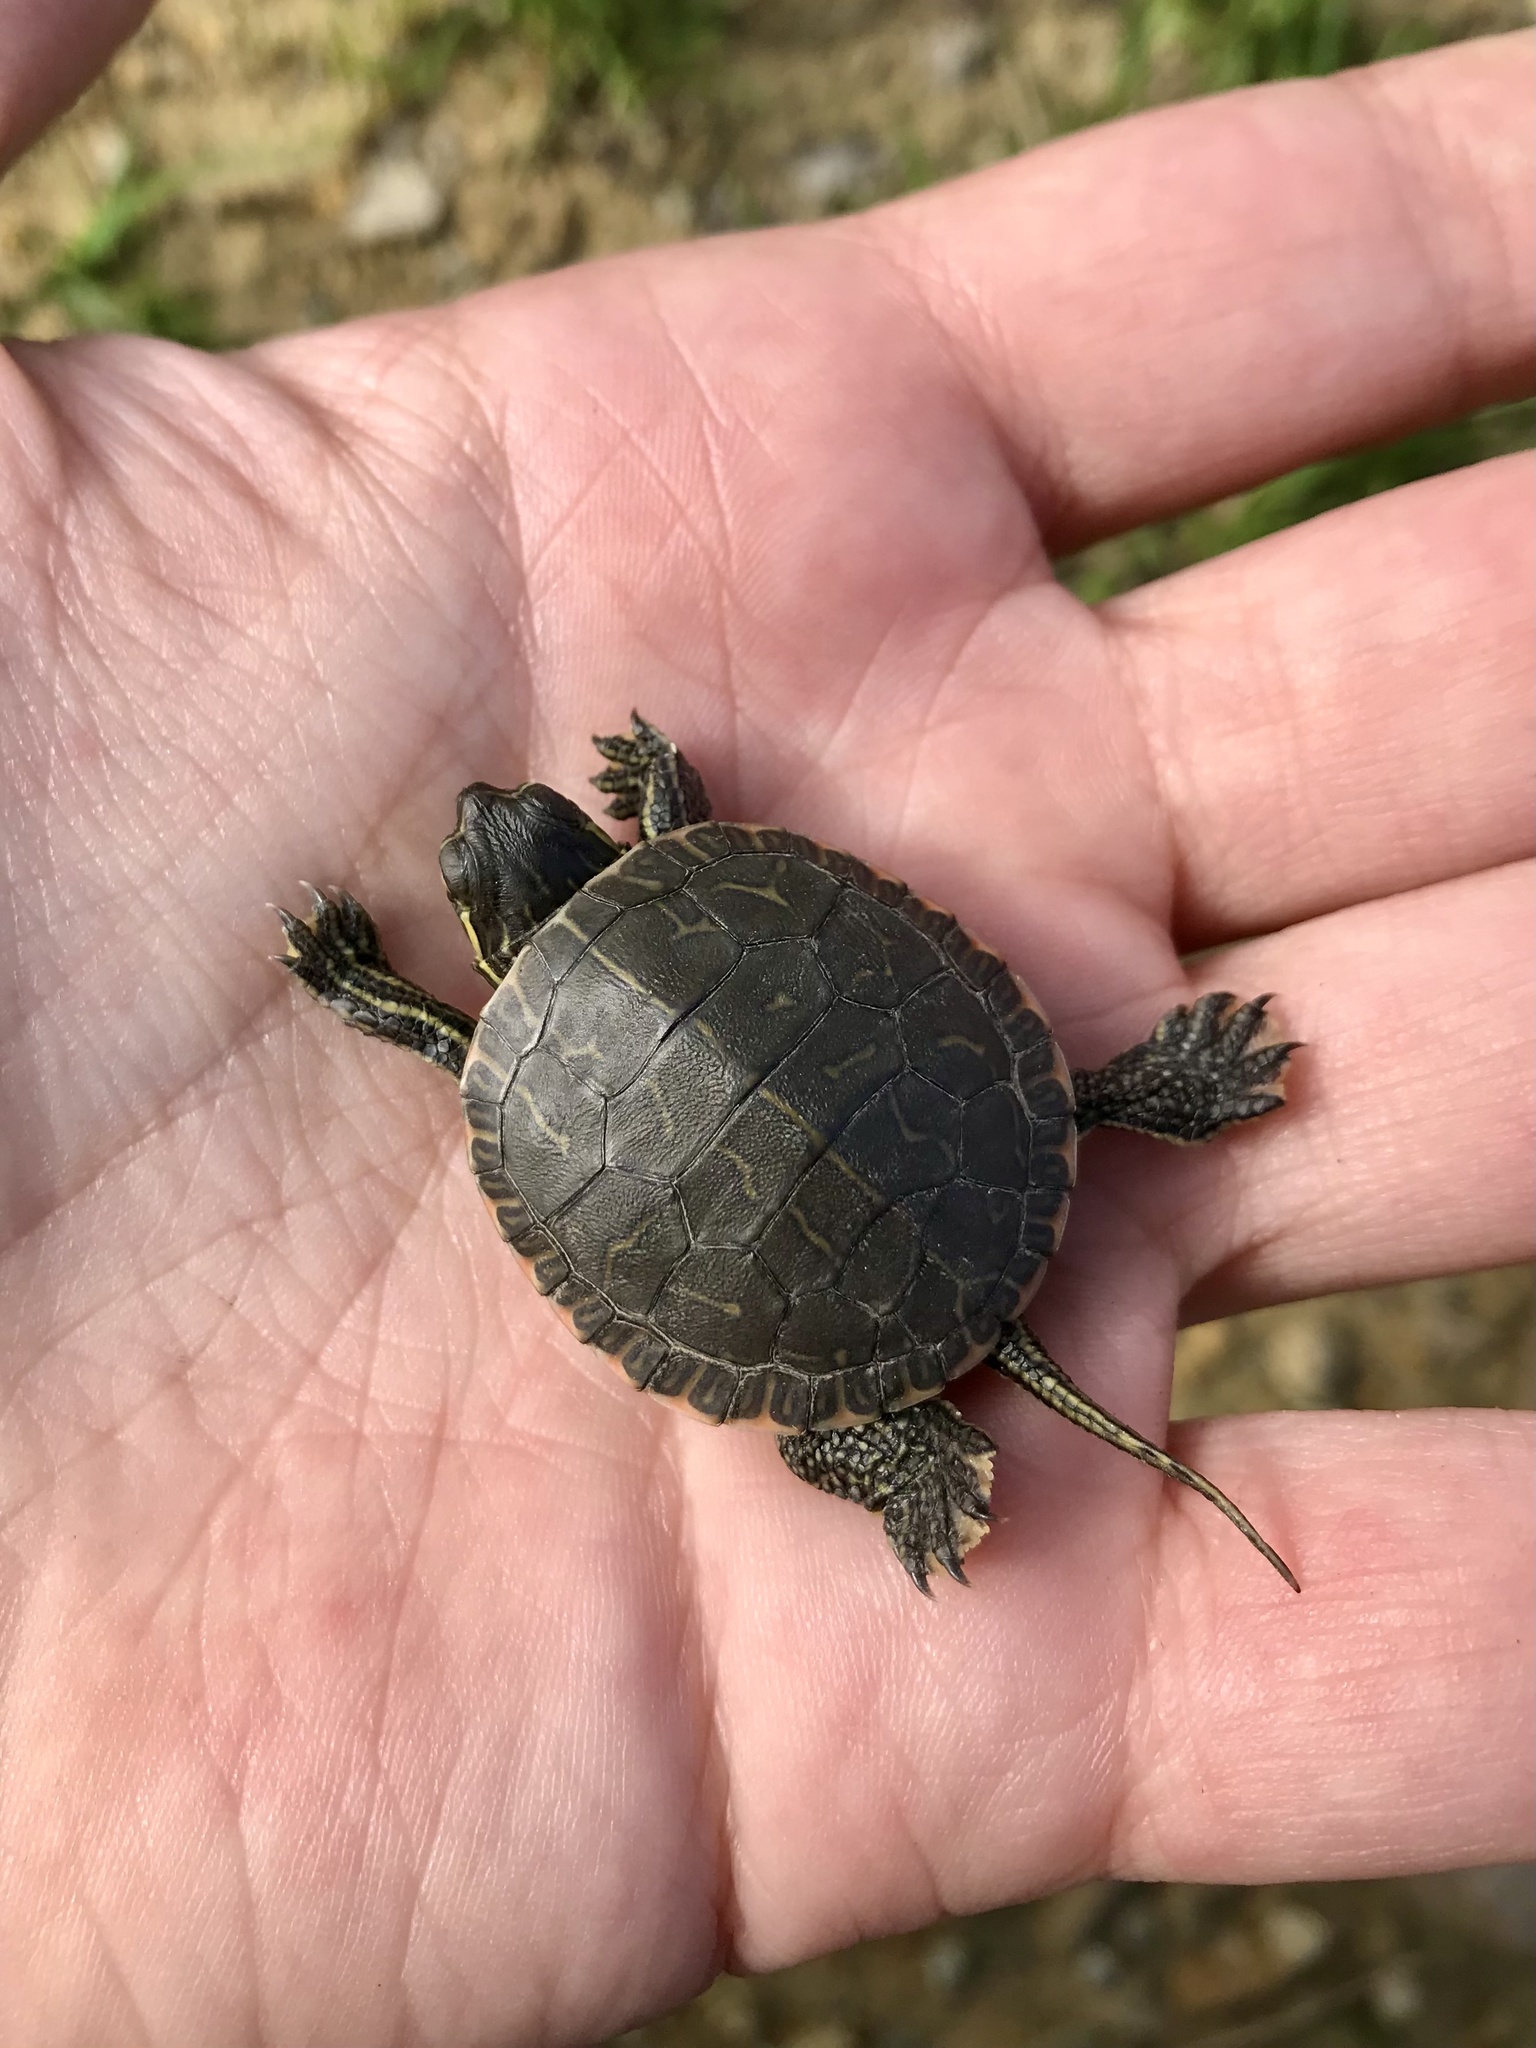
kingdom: Animalia
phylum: Chordata
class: Testudines
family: Emydidae
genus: Chrysemys
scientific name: Chrysemys picta
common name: Painted turtle
